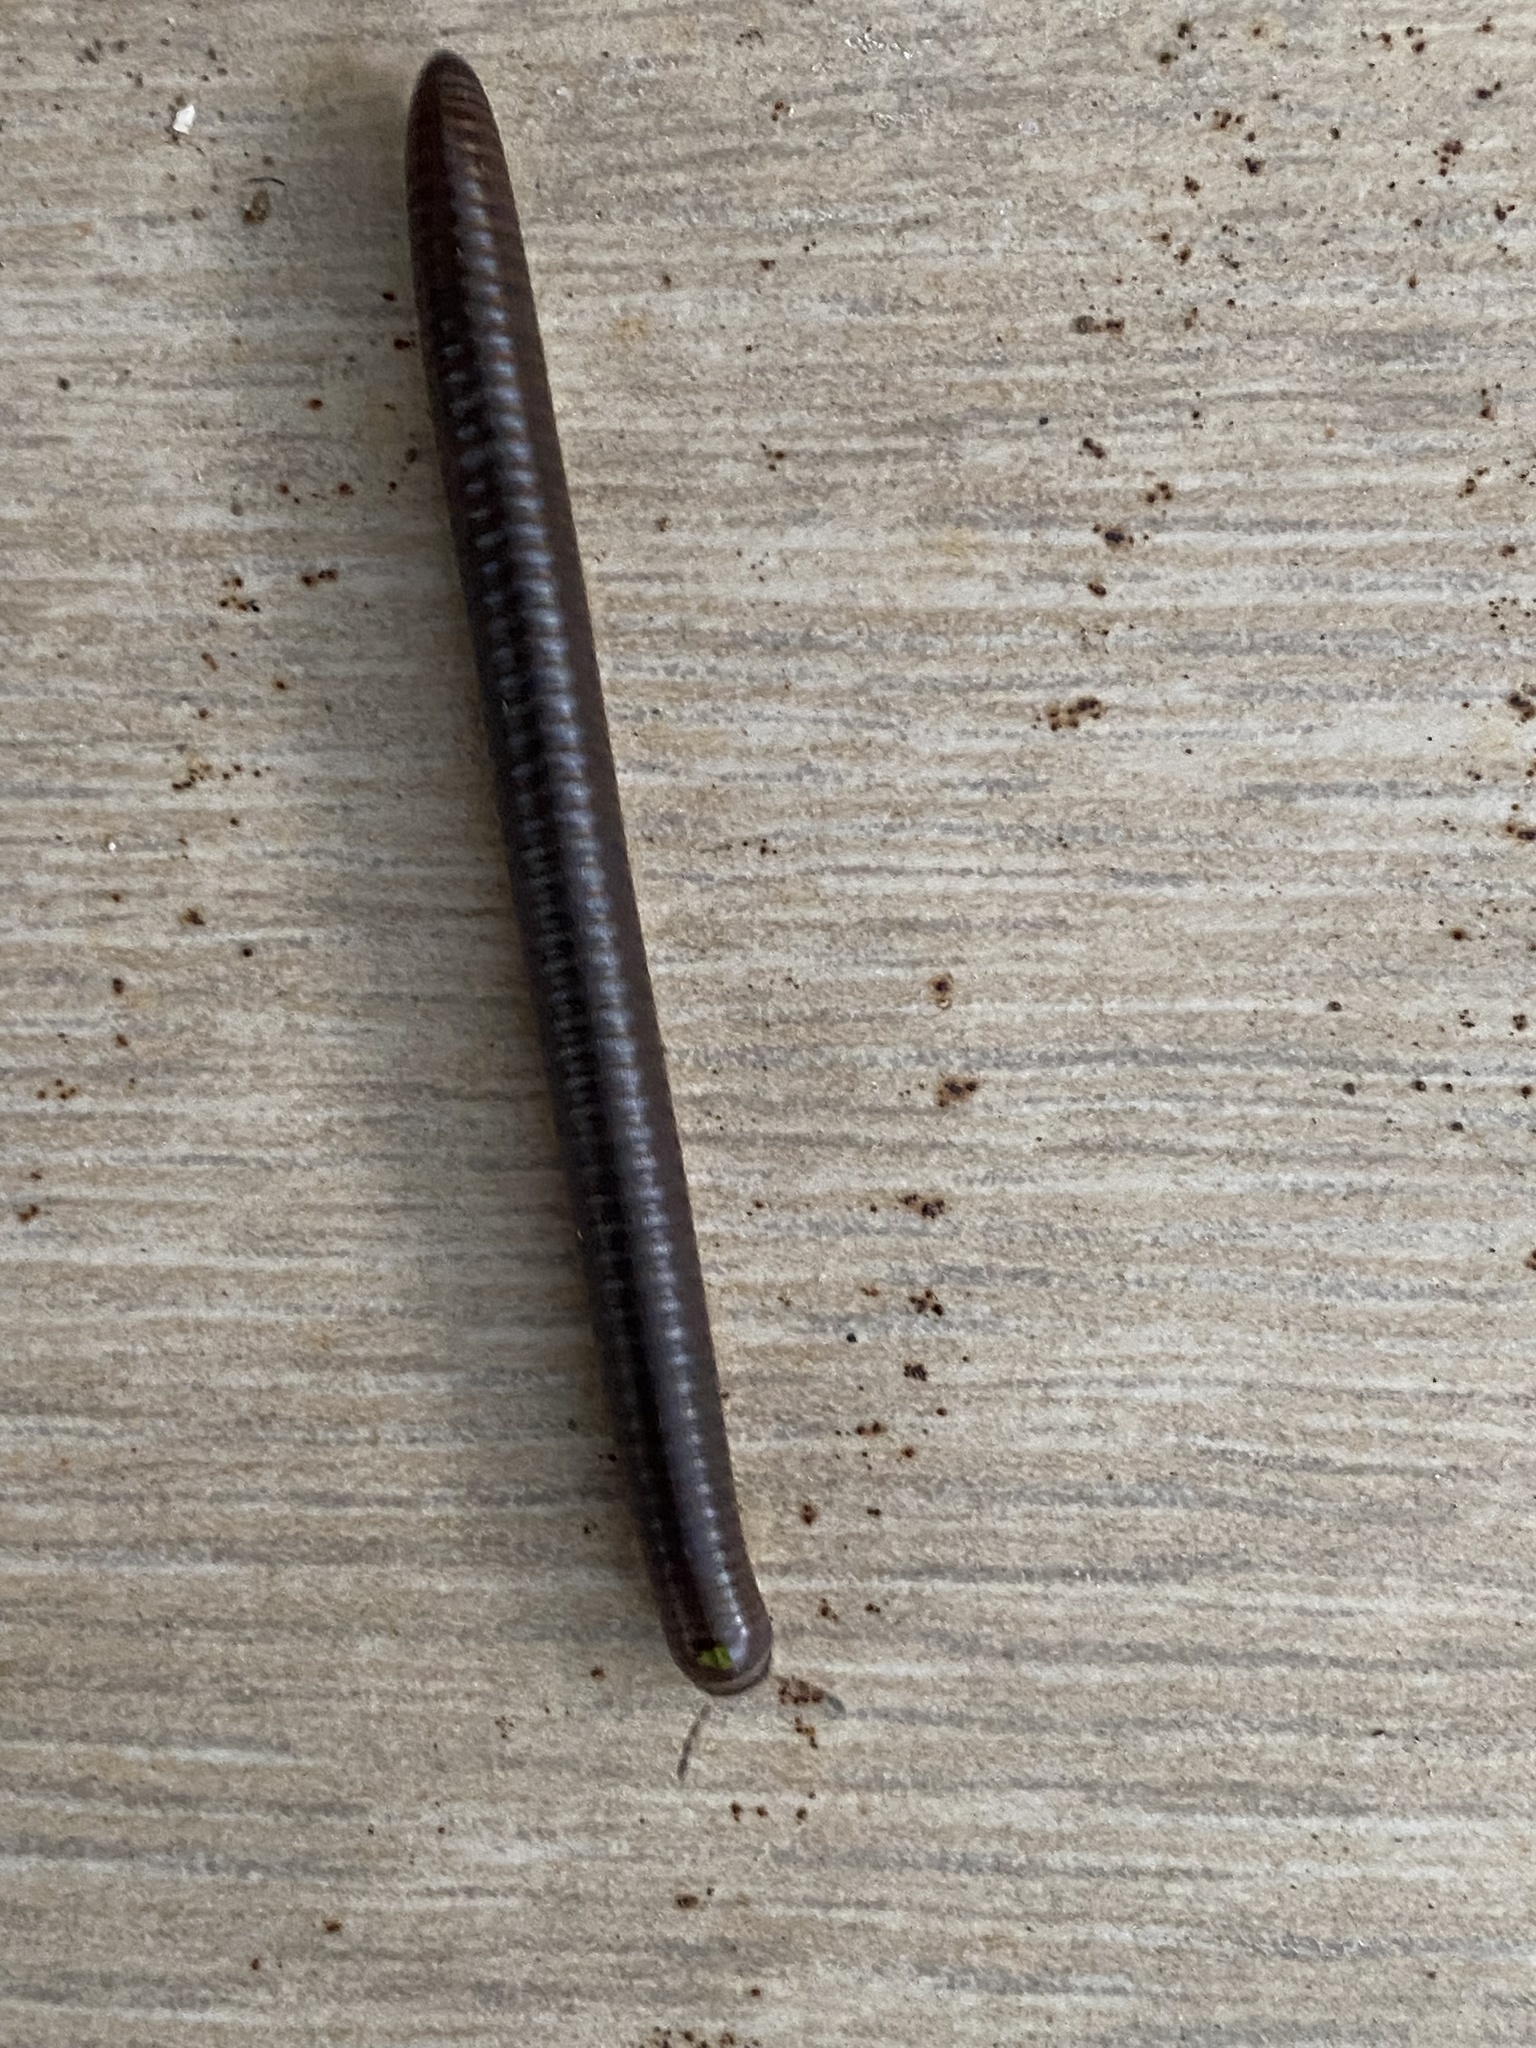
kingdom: Animalia
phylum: Arthropoda
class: Diplopoda
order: Julida
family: Julidae
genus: Pachyiulus
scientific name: Pachyiulus flavipes
